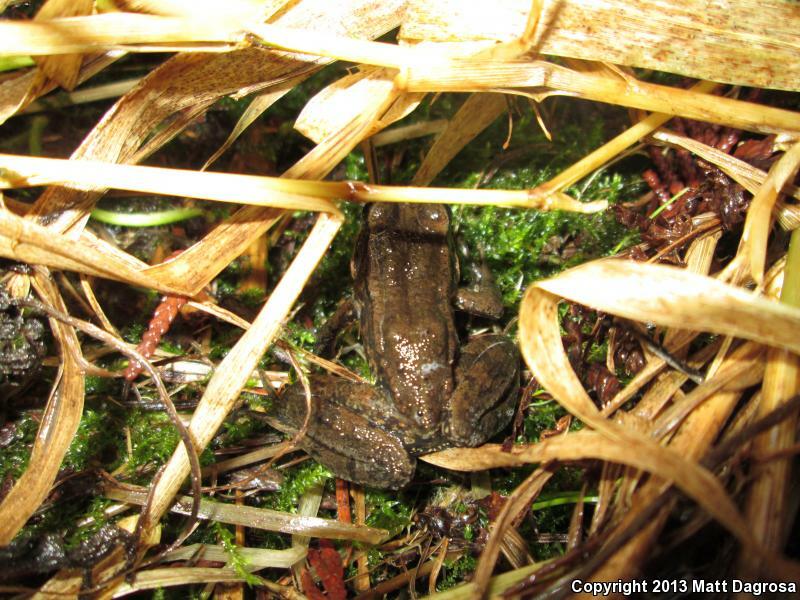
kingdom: Animalia
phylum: Chordata
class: Amphibia
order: Anura
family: Ranidae
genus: Rana
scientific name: Rana aurora
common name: Red-legged frog
